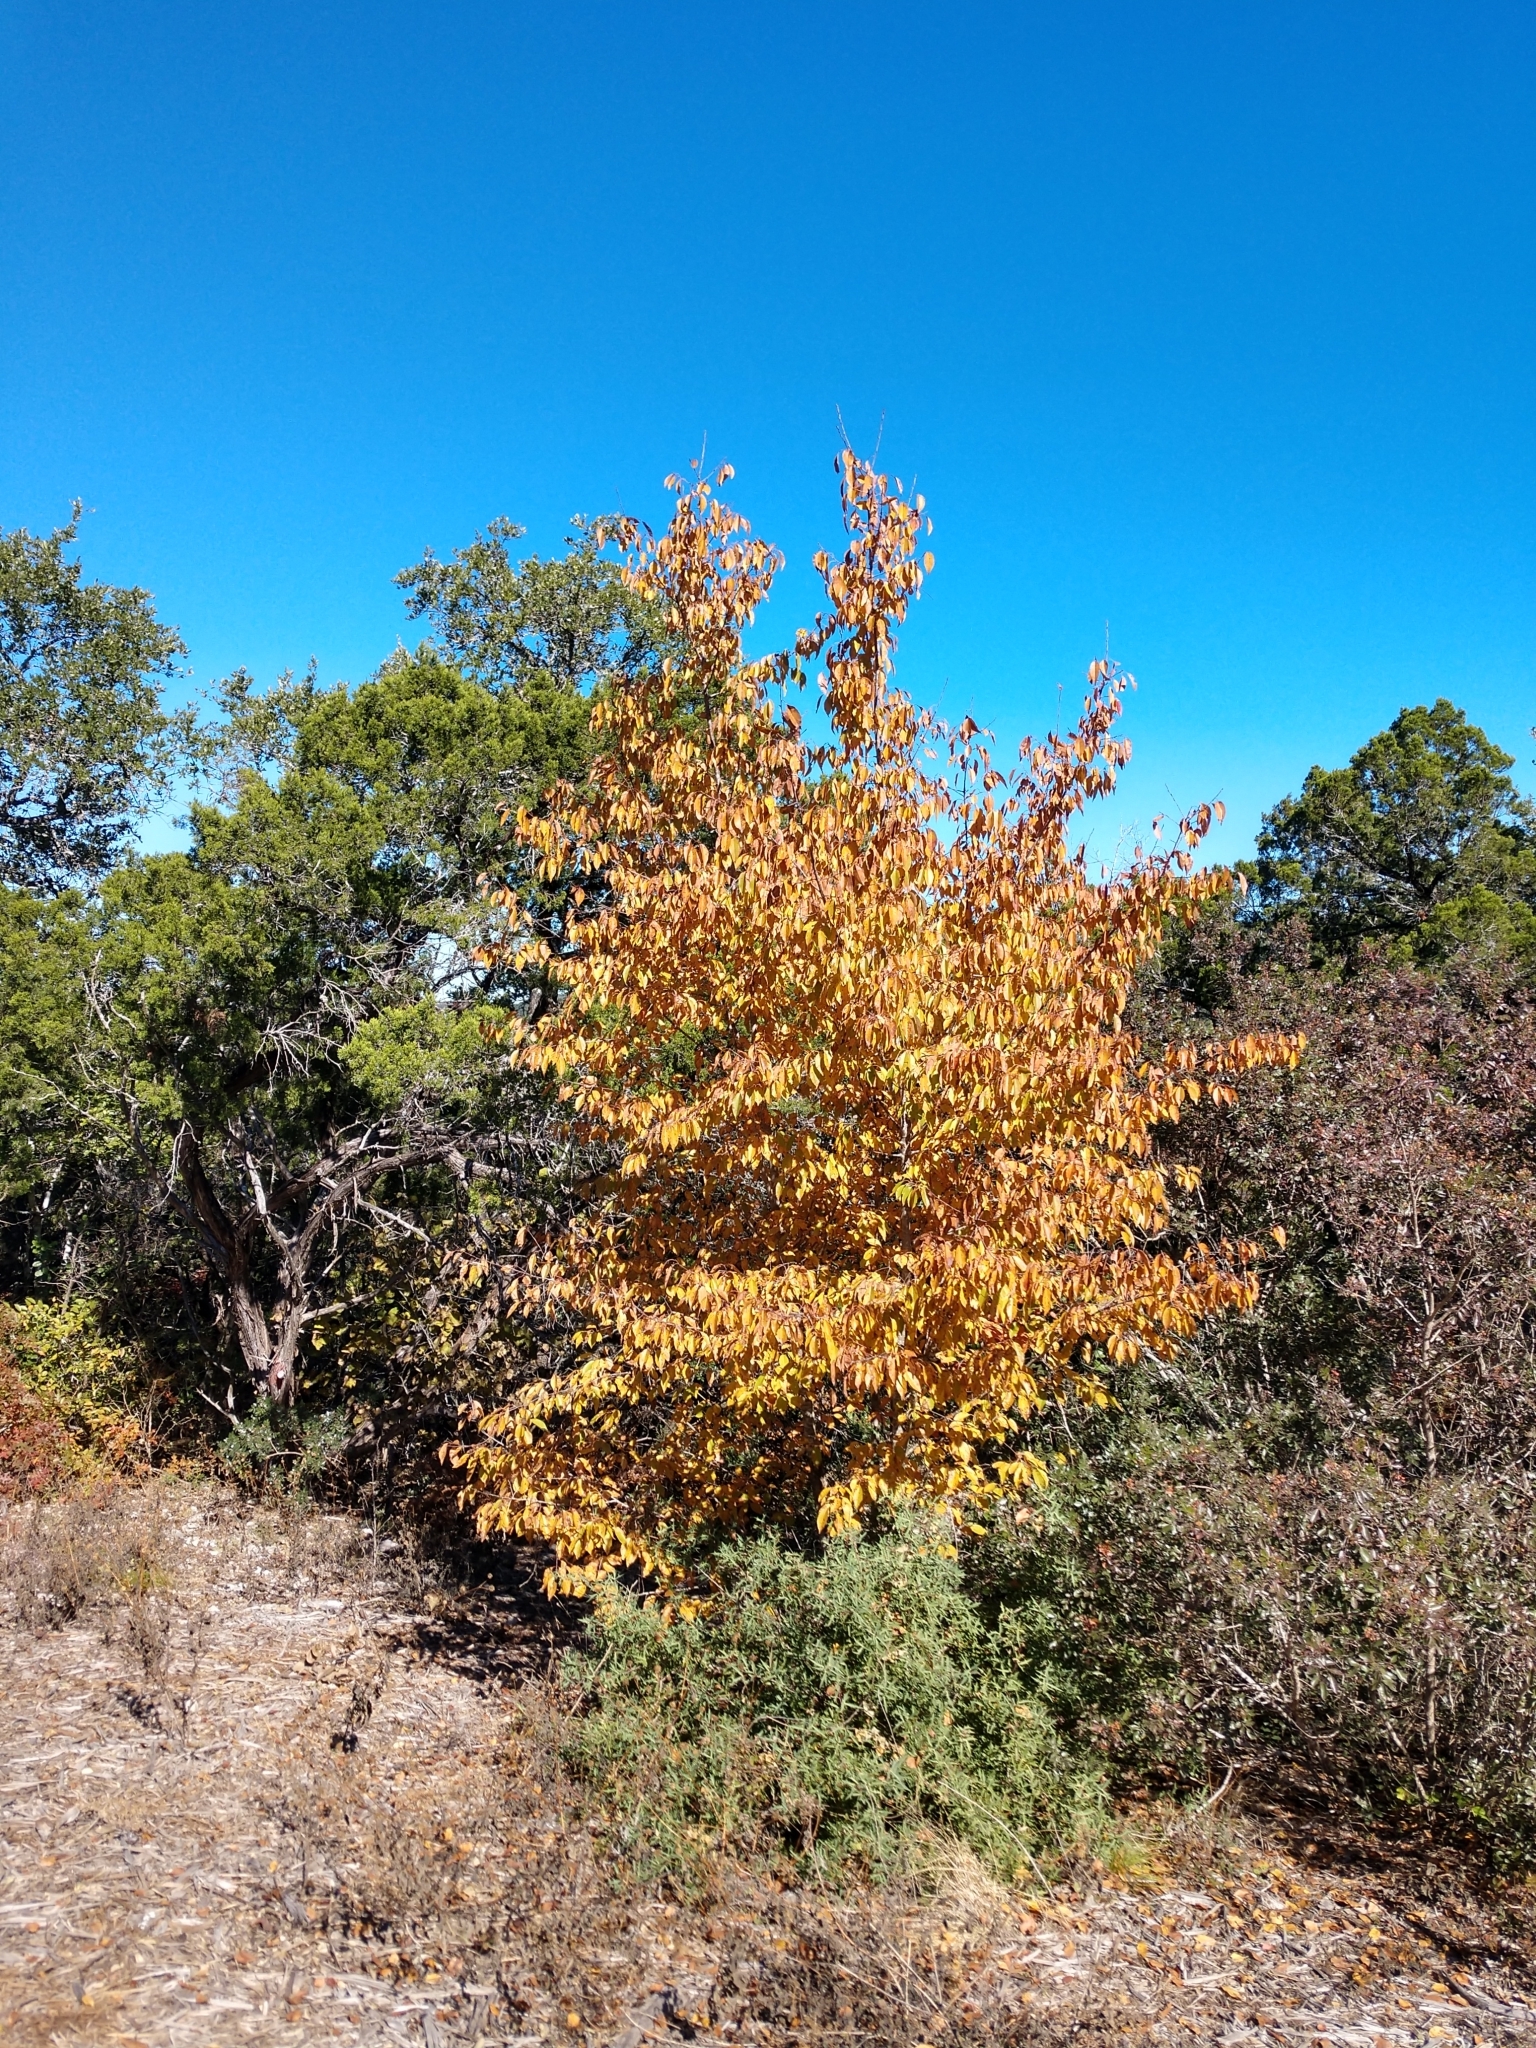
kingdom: Plantae
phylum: Tracheophyta
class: Magnoliopsida
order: Rosales
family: Rosaceae
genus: Prunus
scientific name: Prunus serotina
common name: Black cherry
